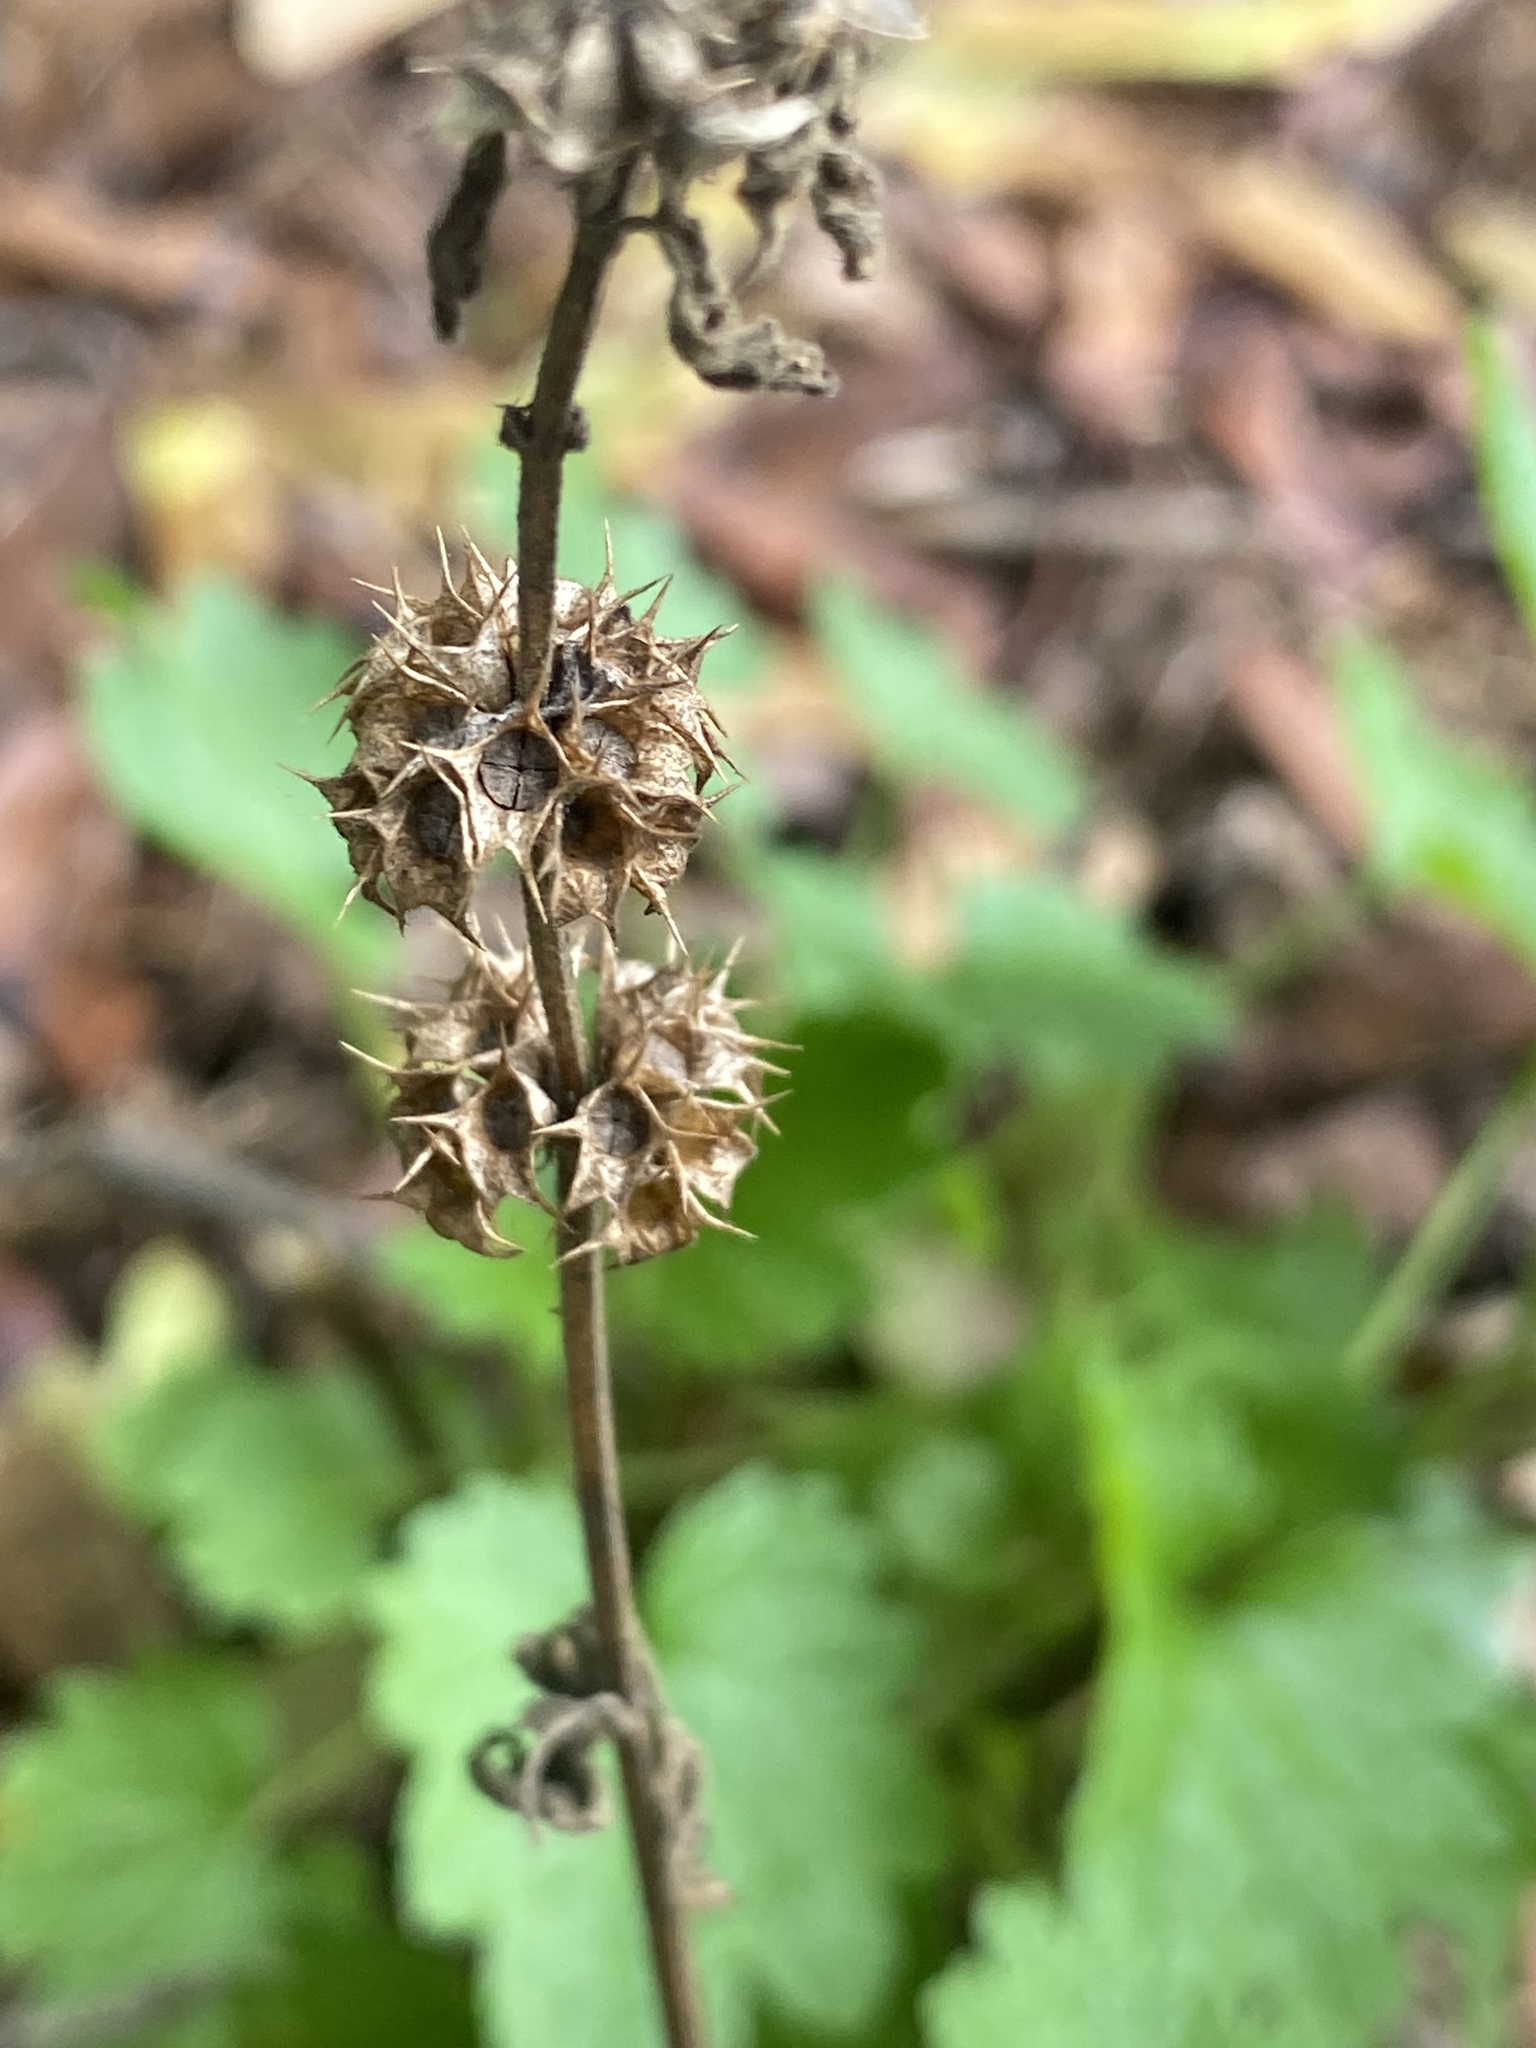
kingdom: Plantae
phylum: Tracheophyta
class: Magnoliopsida
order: Lamiales
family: Lamiaceae
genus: Leonurus
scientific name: Leonurus cardiaca
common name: Motherwort
